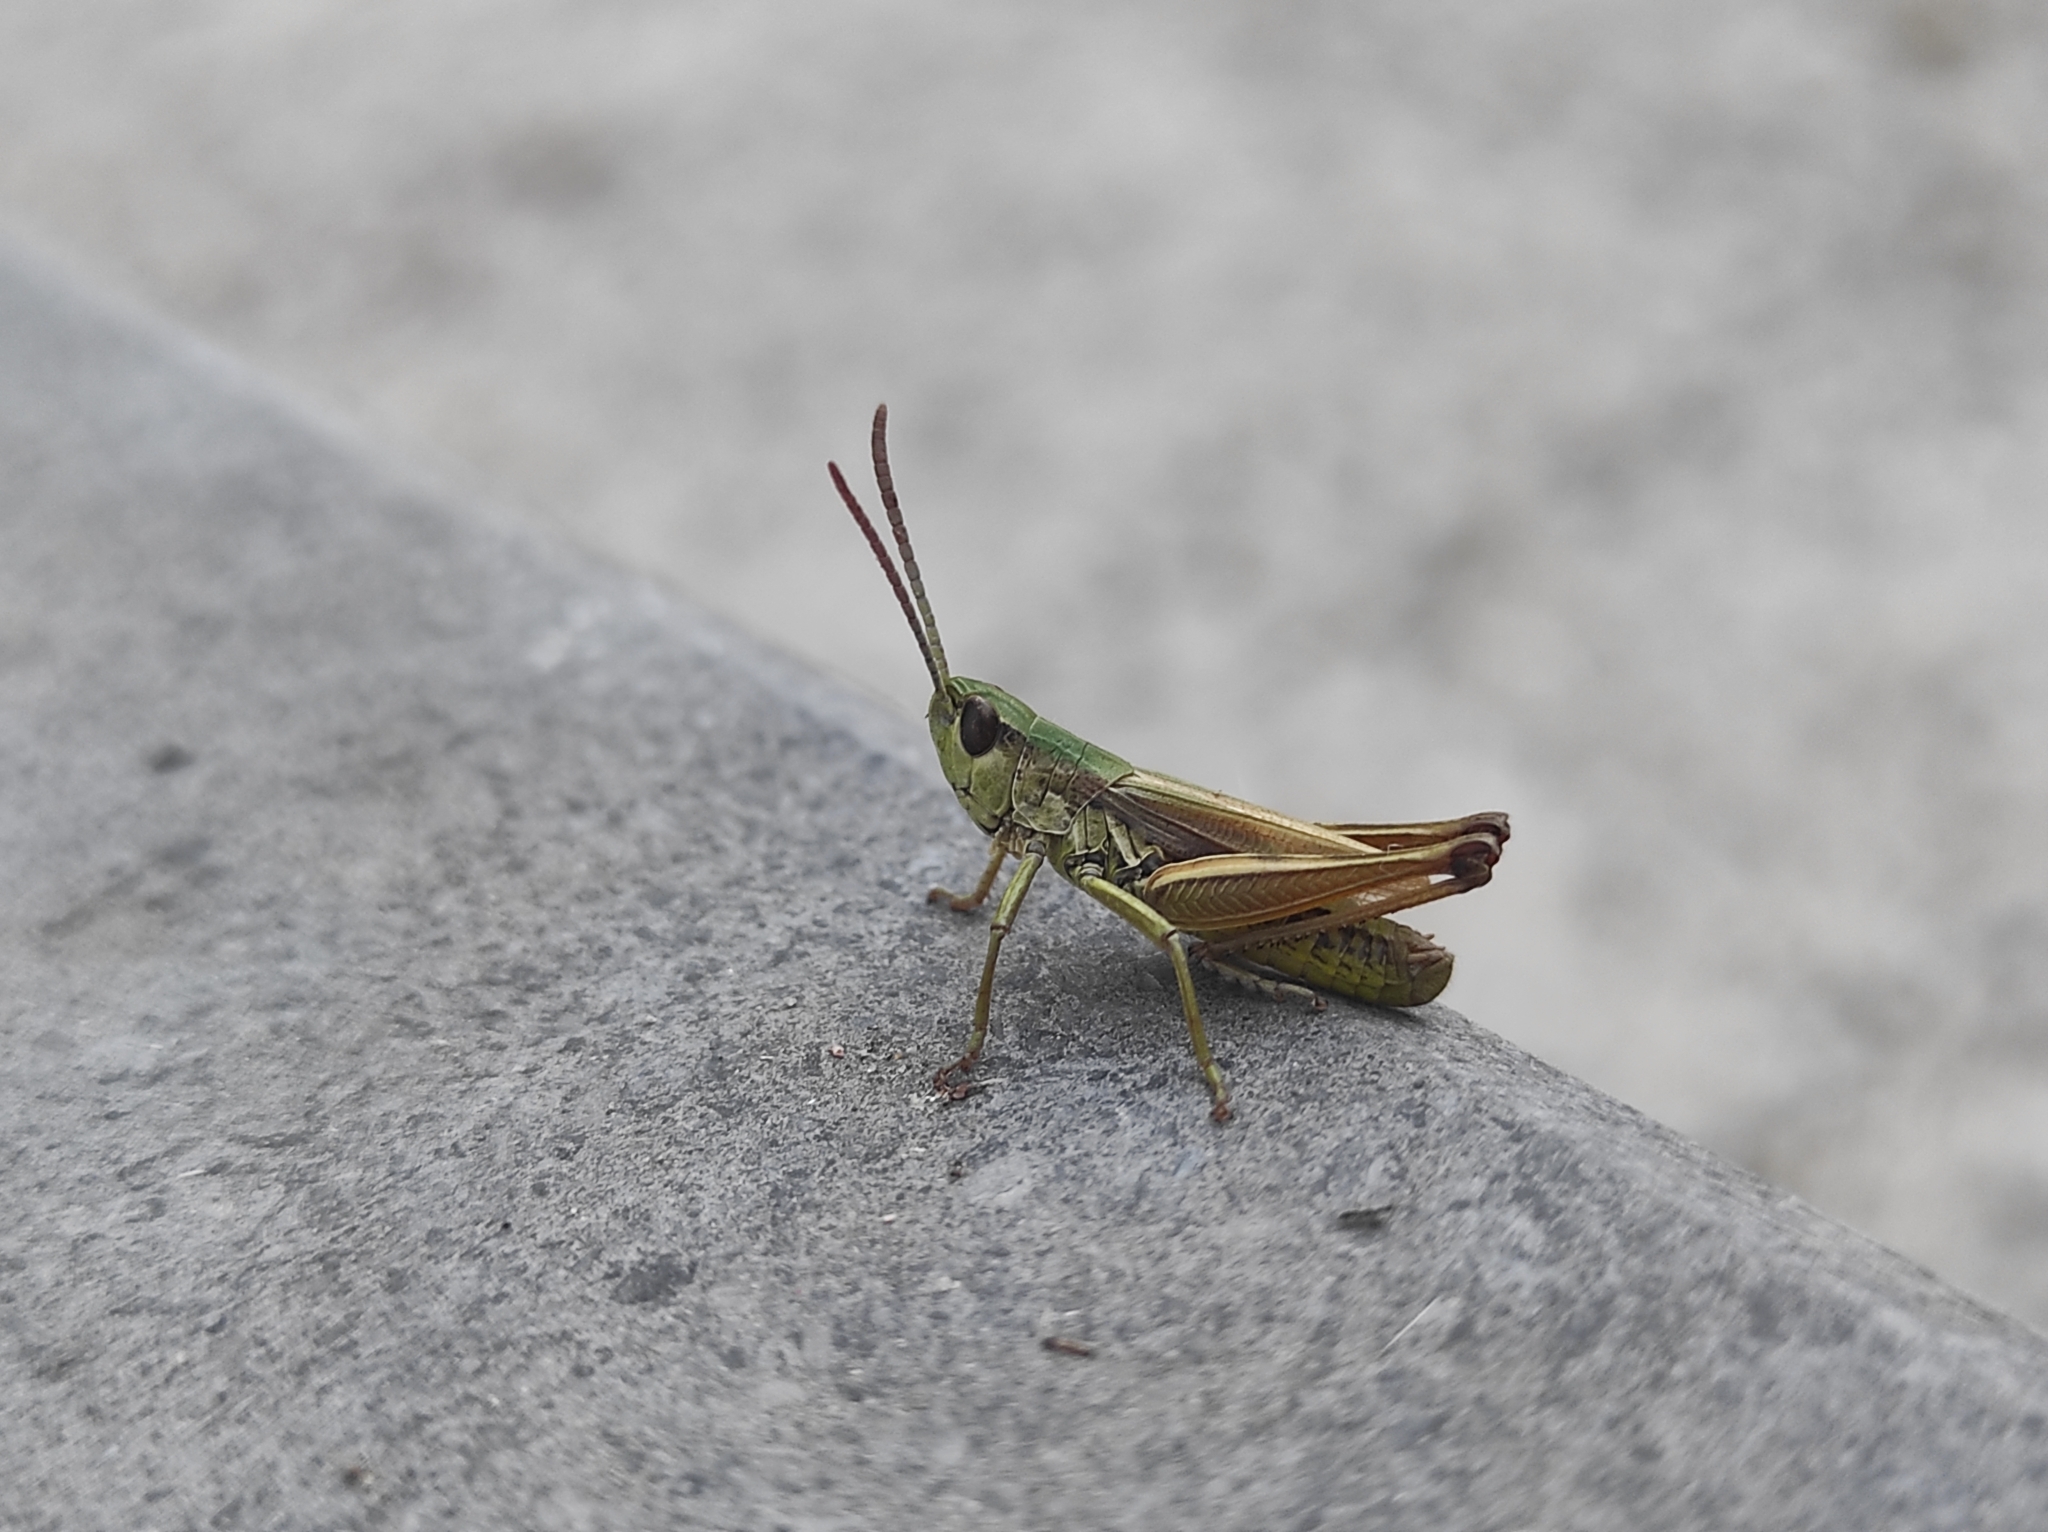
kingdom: Animalia
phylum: Arthropoda
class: Insecta
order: Orthoptera
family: Acrididae
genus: Pseudochorthippus
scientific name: Pseudochorthippus parallelus
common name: Meadow grasshopper
